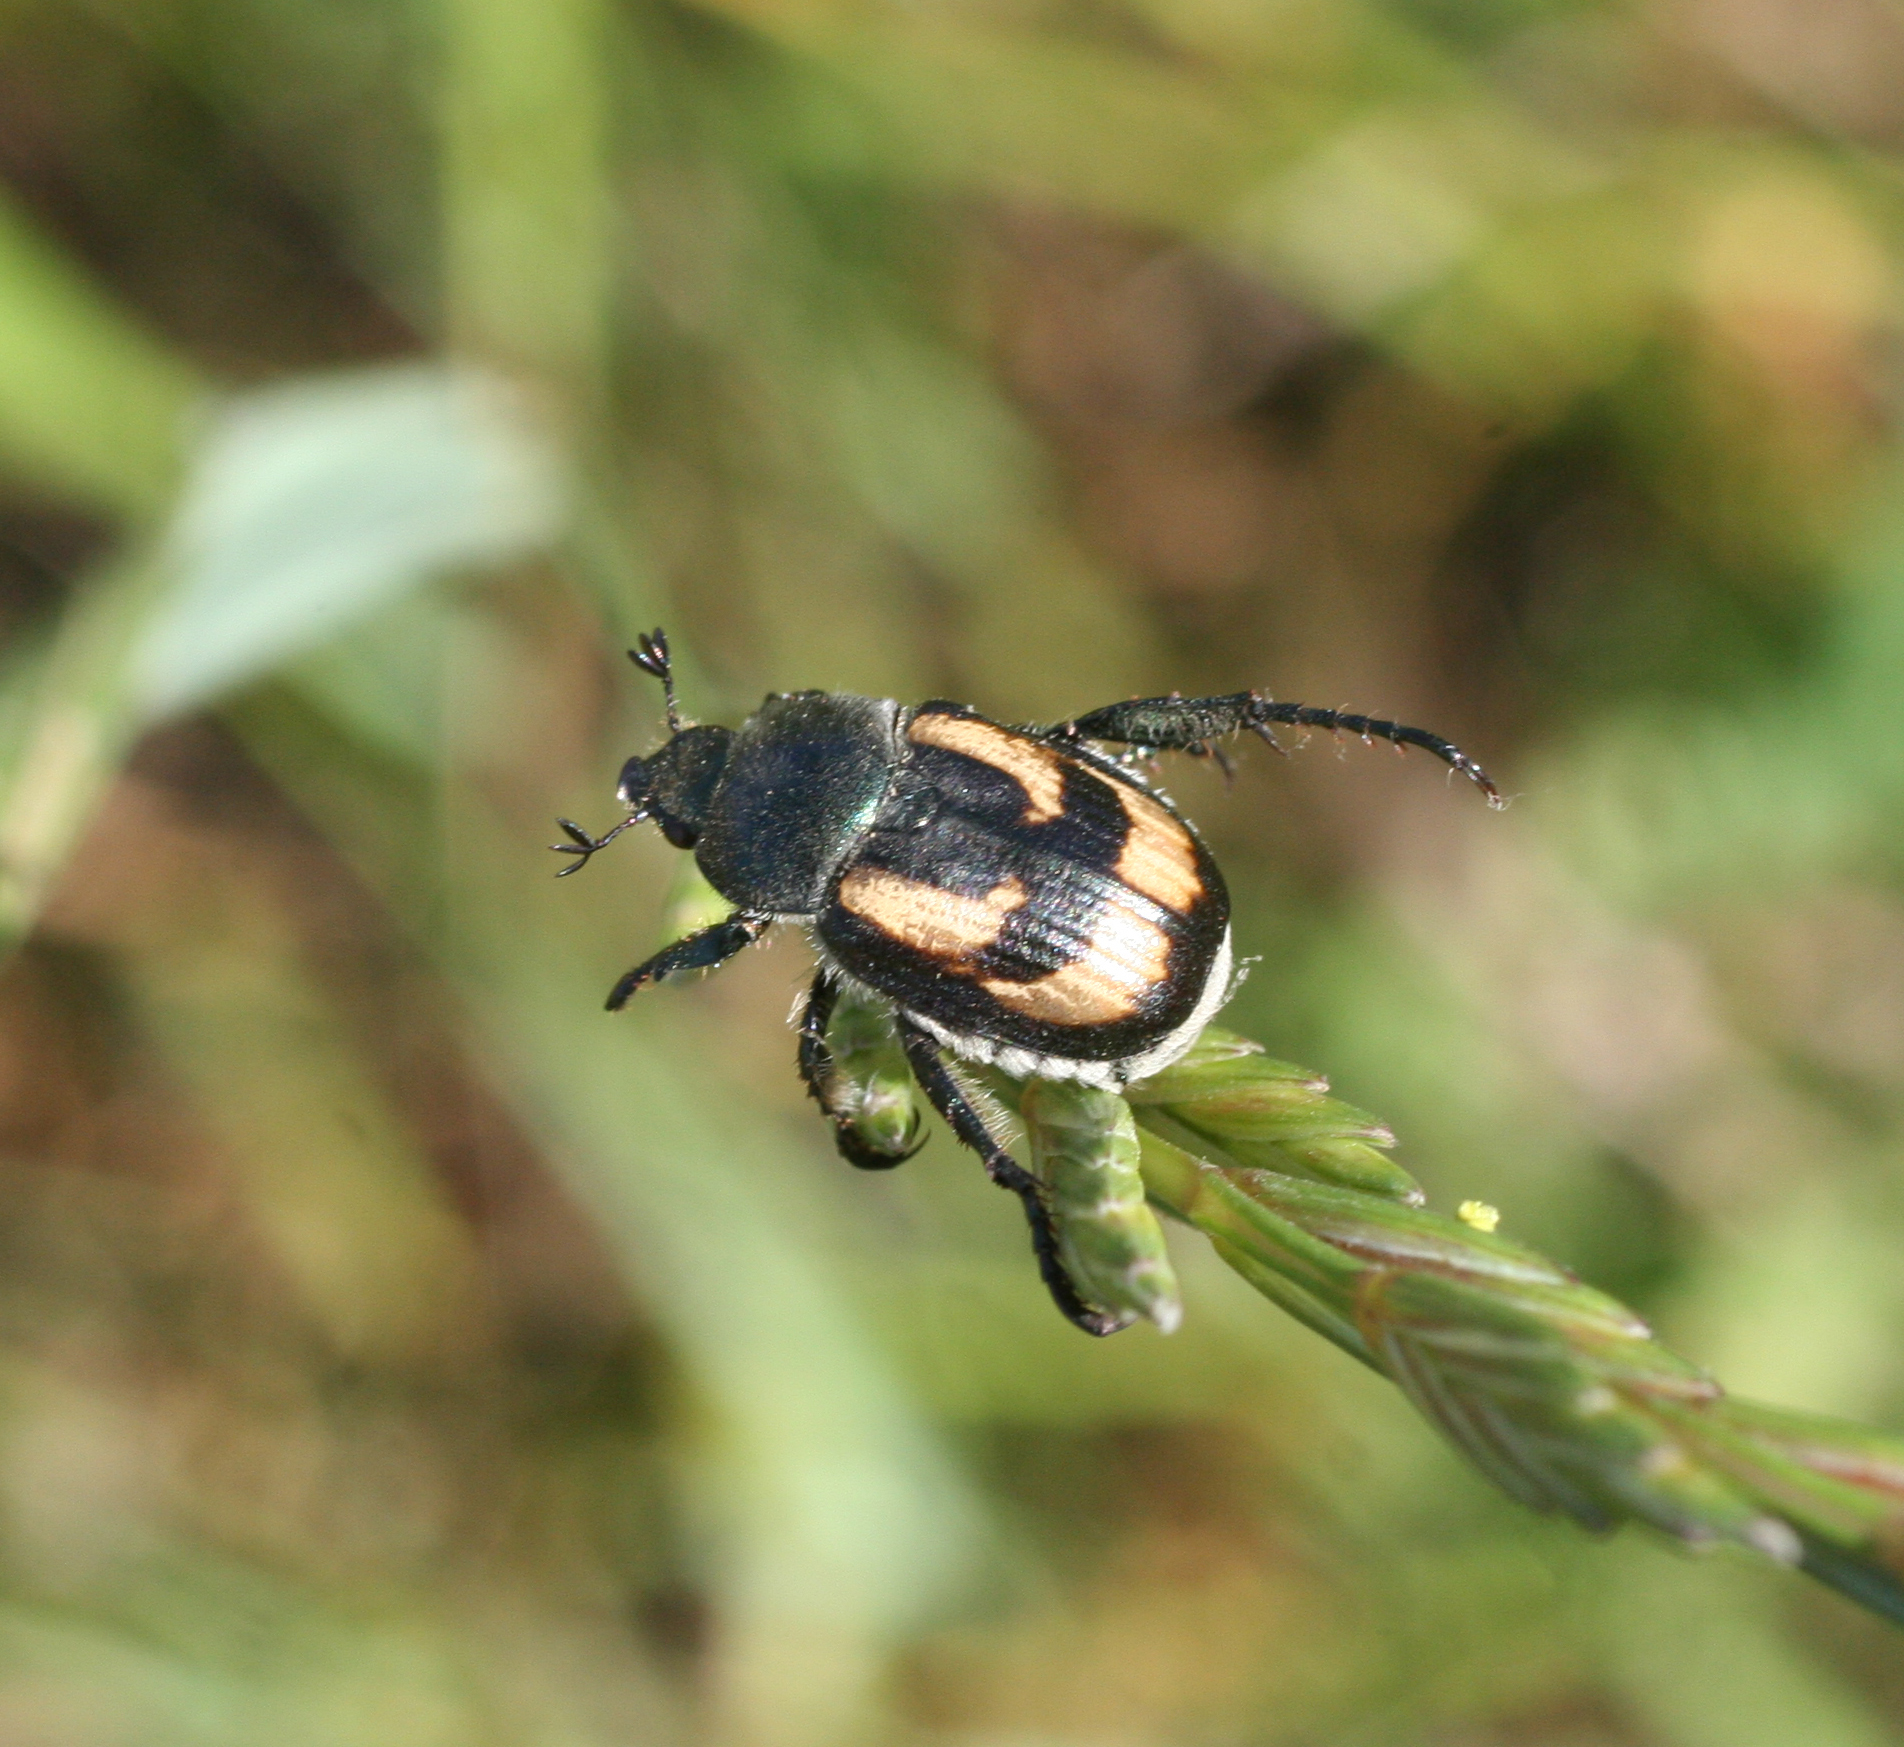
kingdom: Animalia
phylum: Arthropoda
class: Insecta
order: Coleoptera
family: Scarabaeidae
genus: Anisoplia
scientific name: Anisoplia agricola
